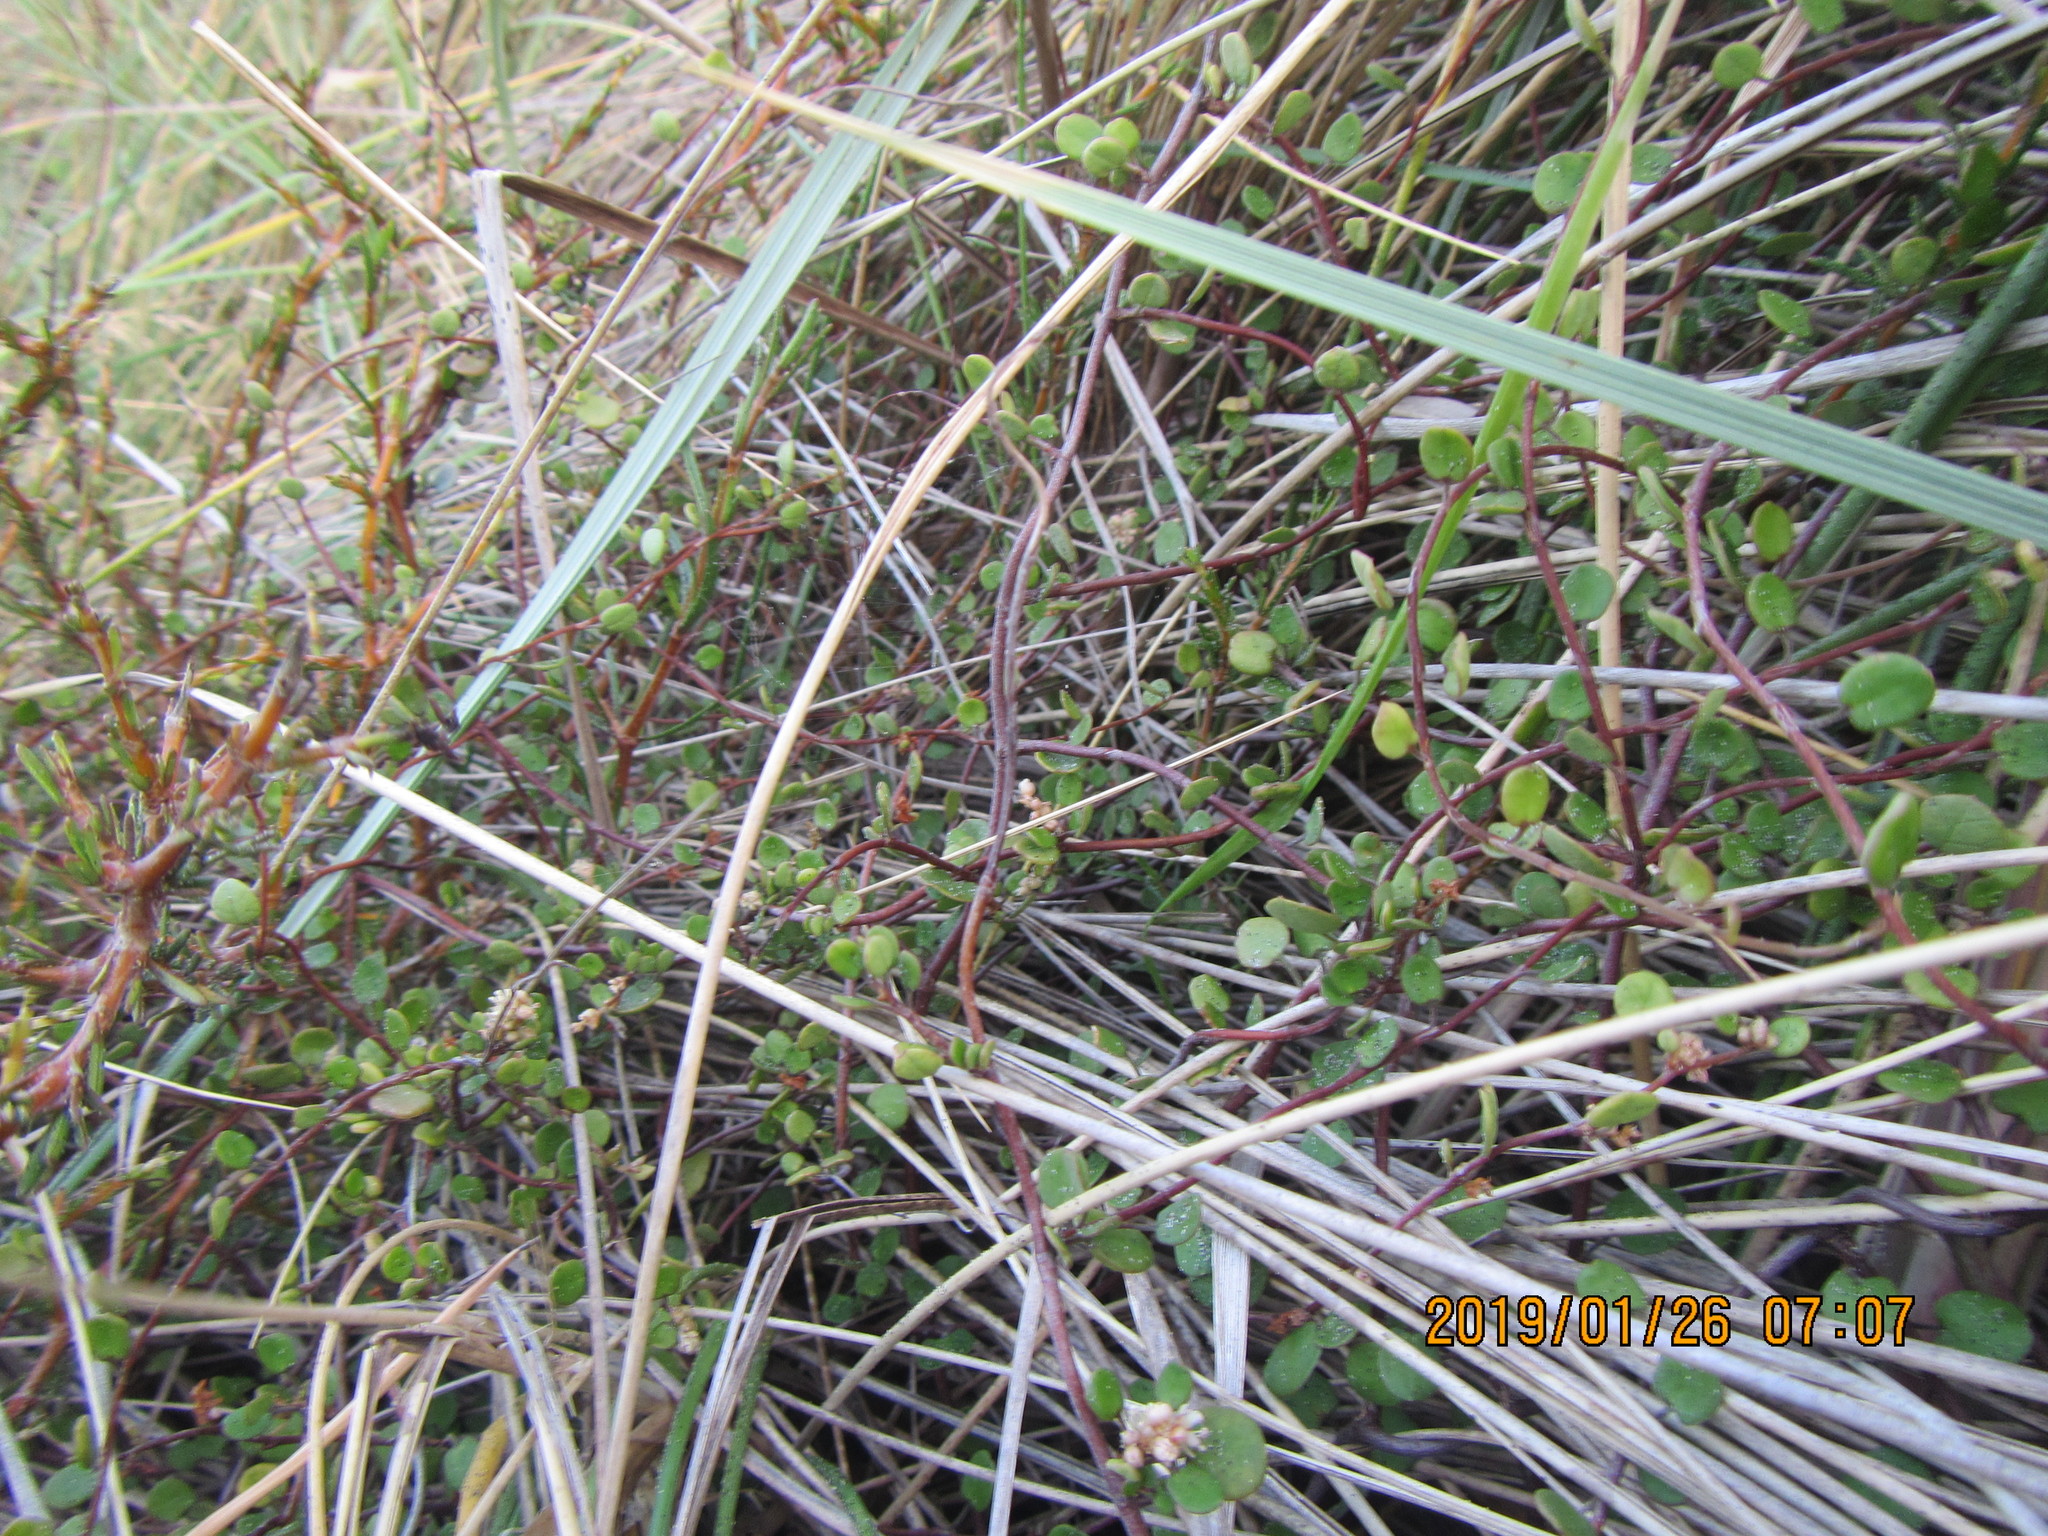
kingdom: Plantae
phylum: Tracheophyta
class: Magnoliopsida
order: Caryophyllales
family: Polygonaceae
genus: Muehlenbeckia
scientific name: Muehlenbeckia complexa
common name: Wireplant
